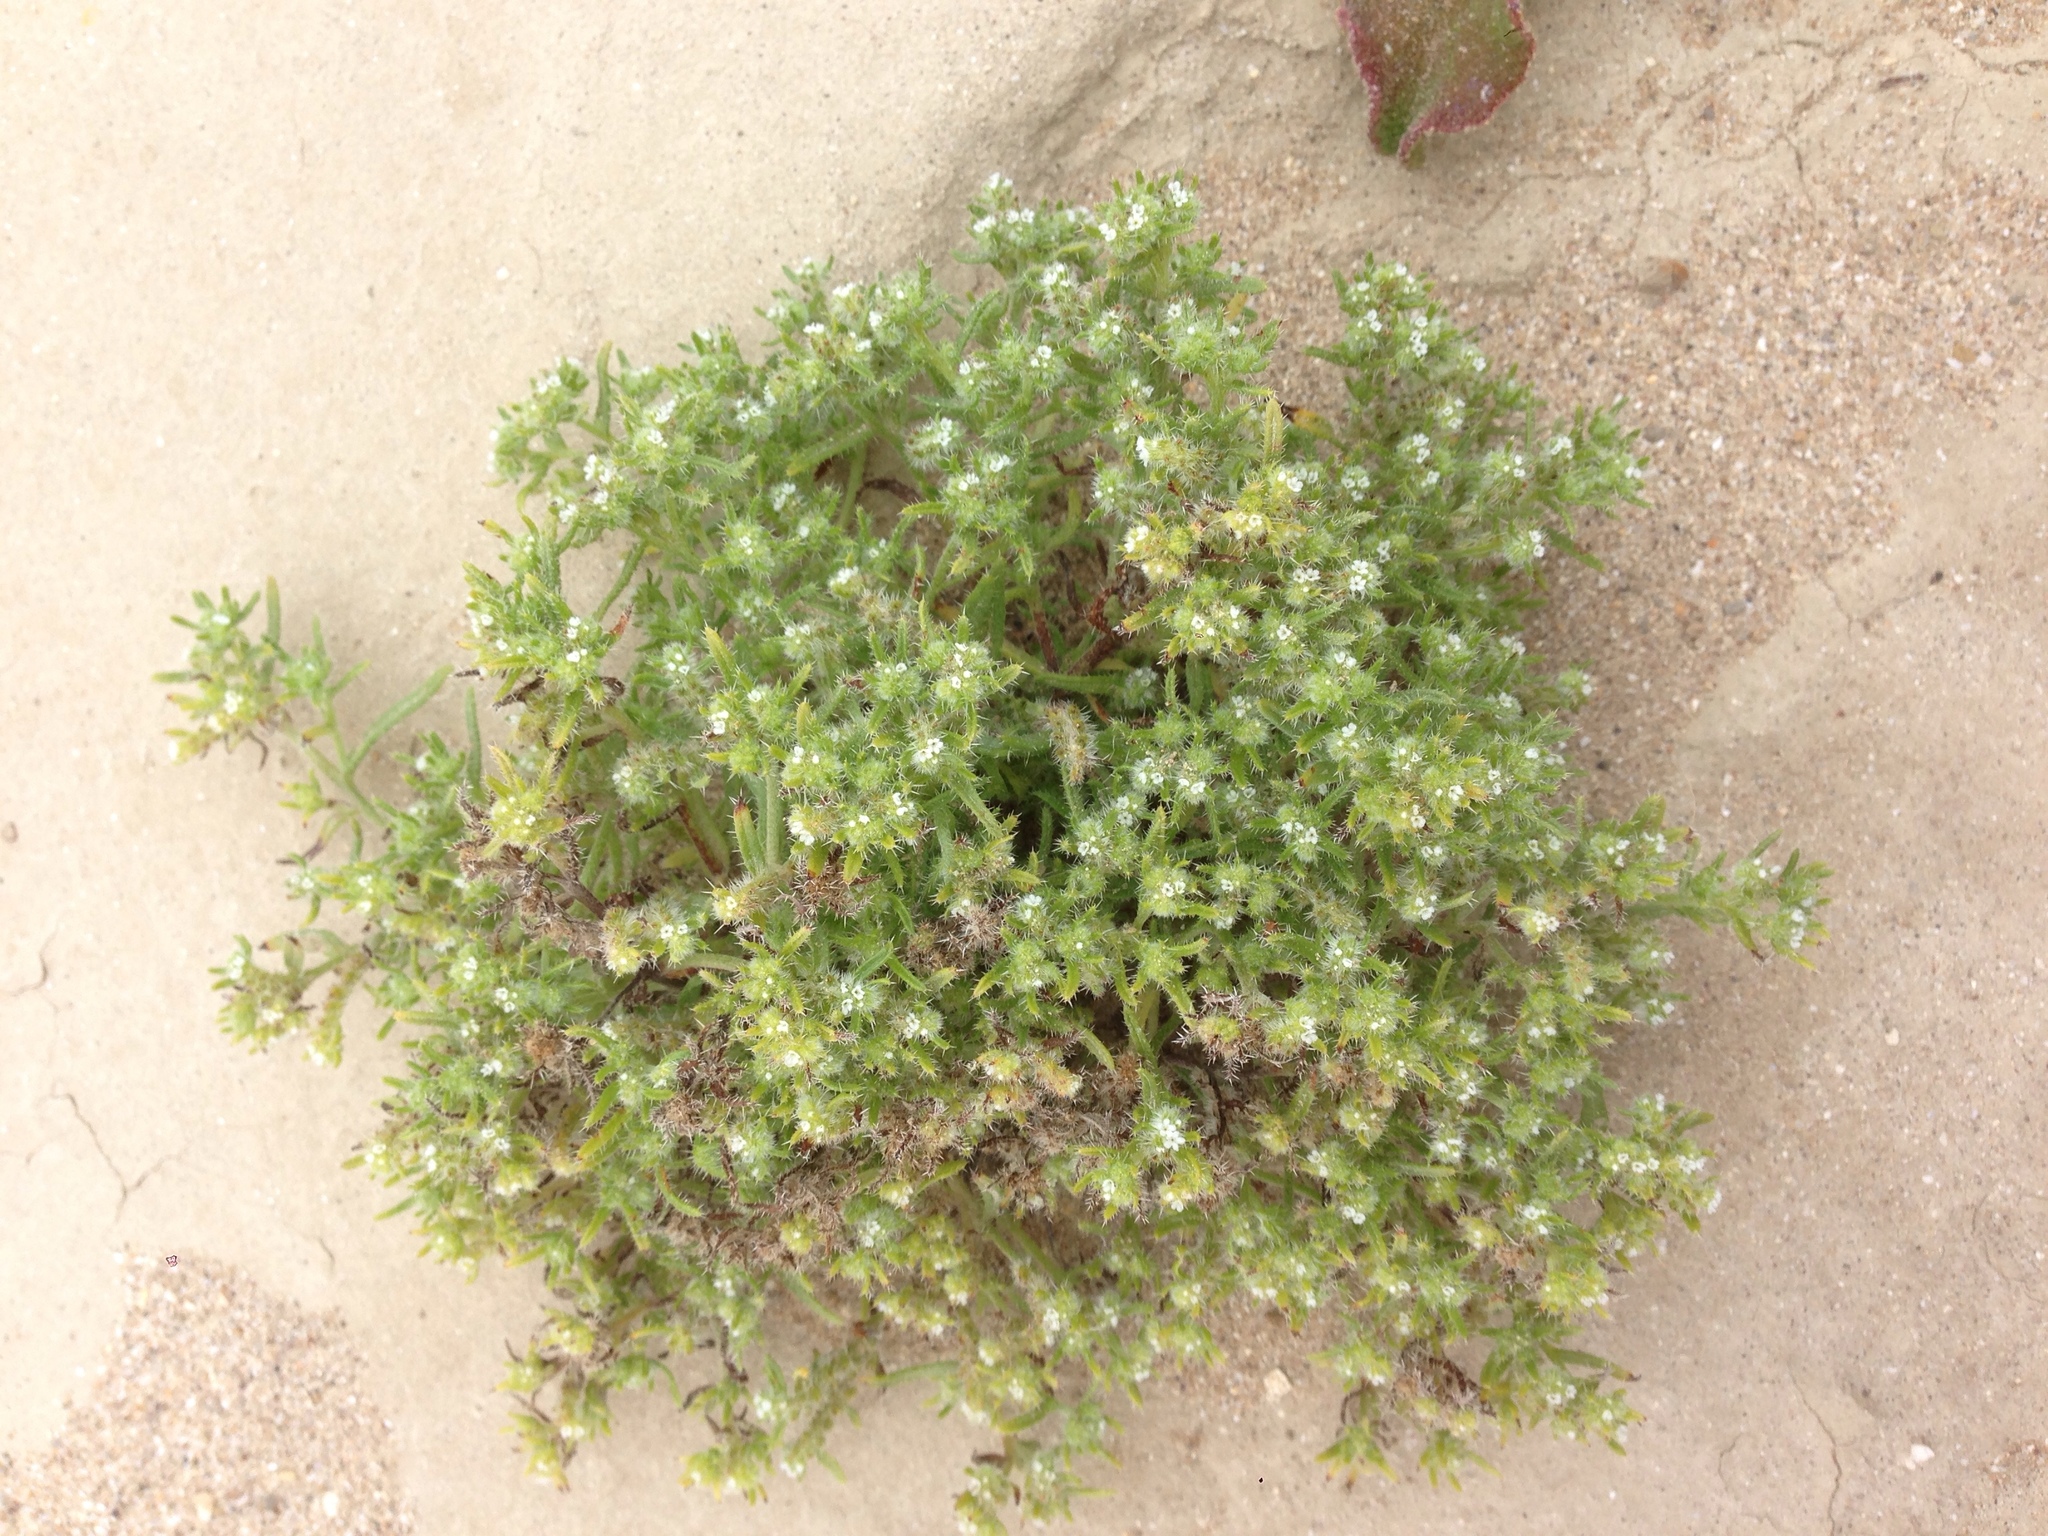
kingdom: Plantae
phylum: Tracheophyta
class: Magnoliopsida
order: Boraginales
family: Boraginaceae
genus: Cryptantha
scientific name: Cryptantha maritima
